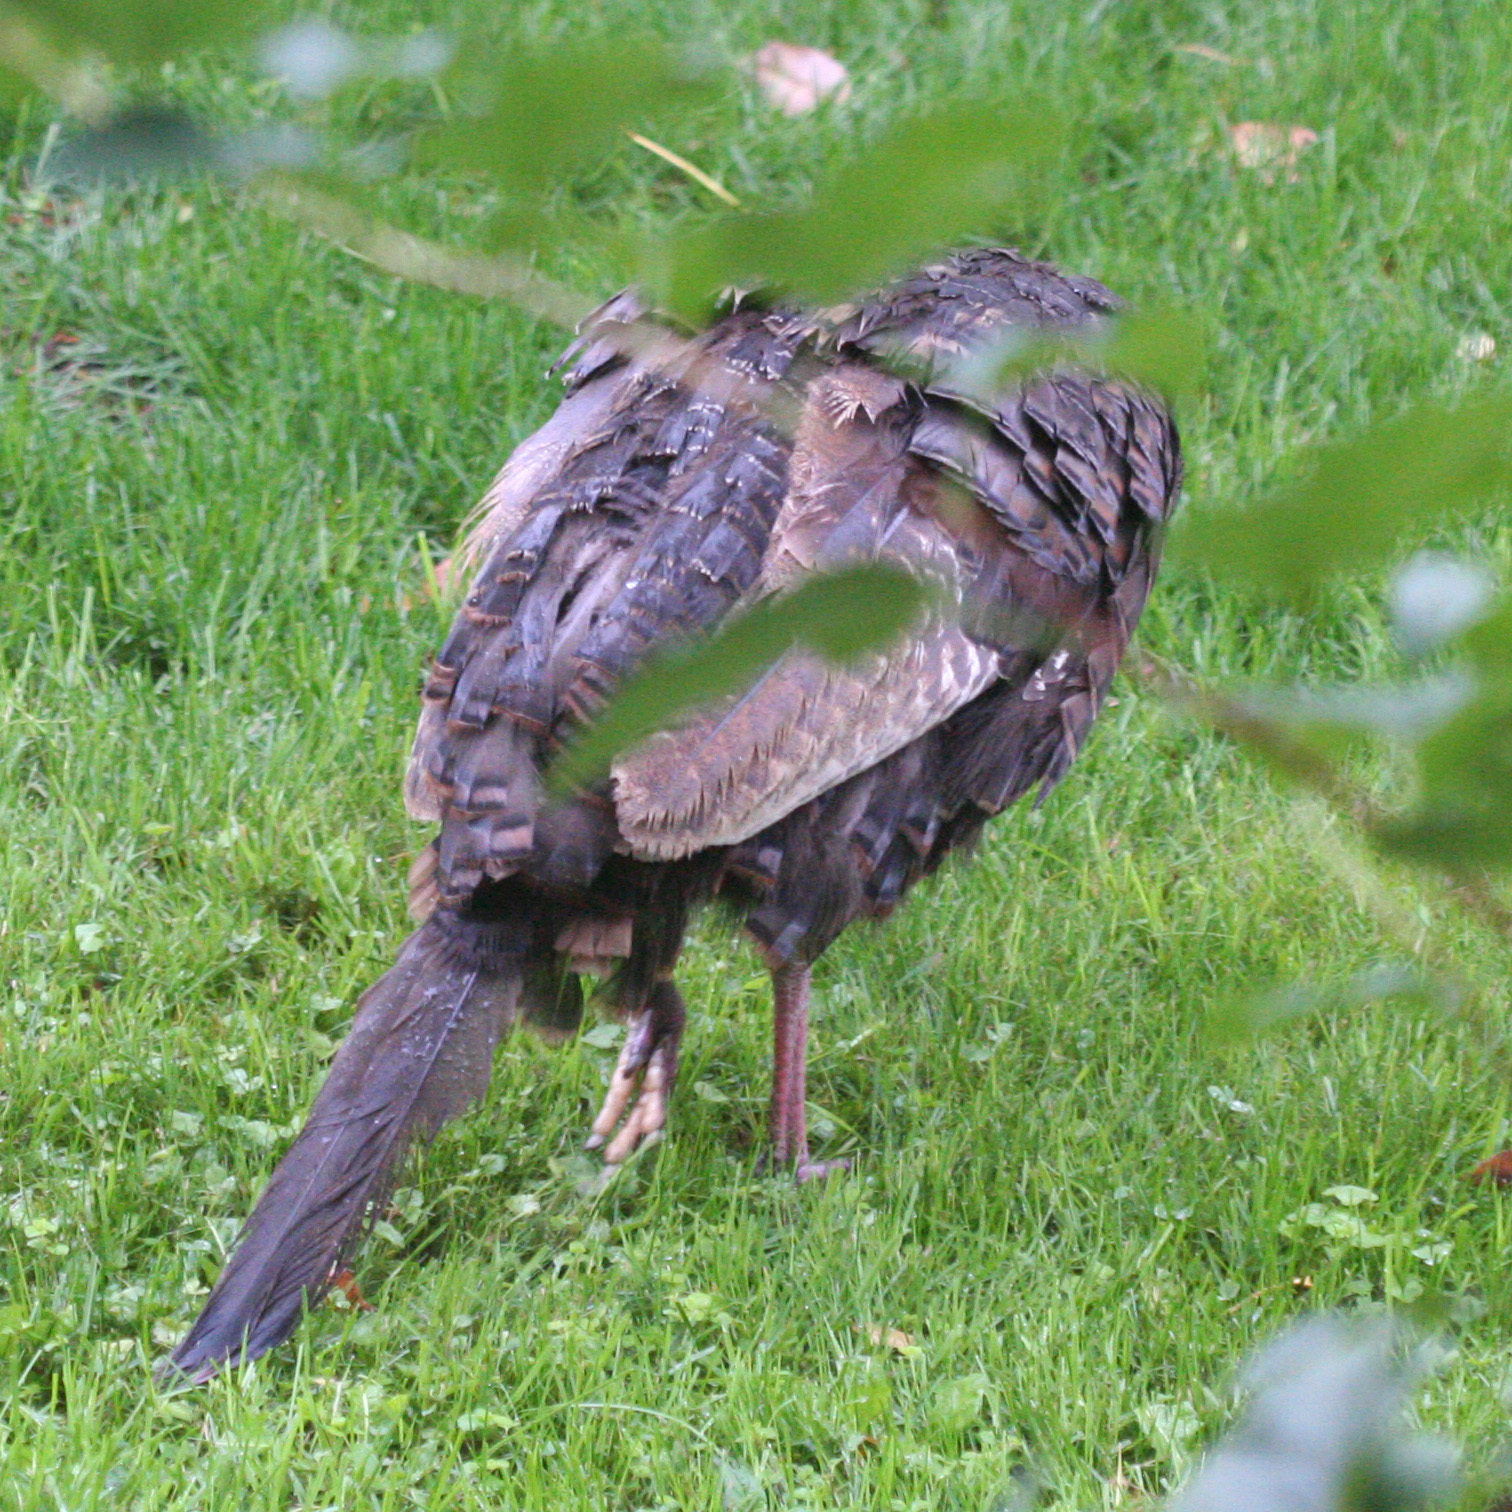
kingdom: Animalia
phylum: Chordata
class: Aves
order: Galliformes
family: Phasianidae
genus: Meleagris
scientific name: Meleagris gallopavo
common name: Wild turkey
